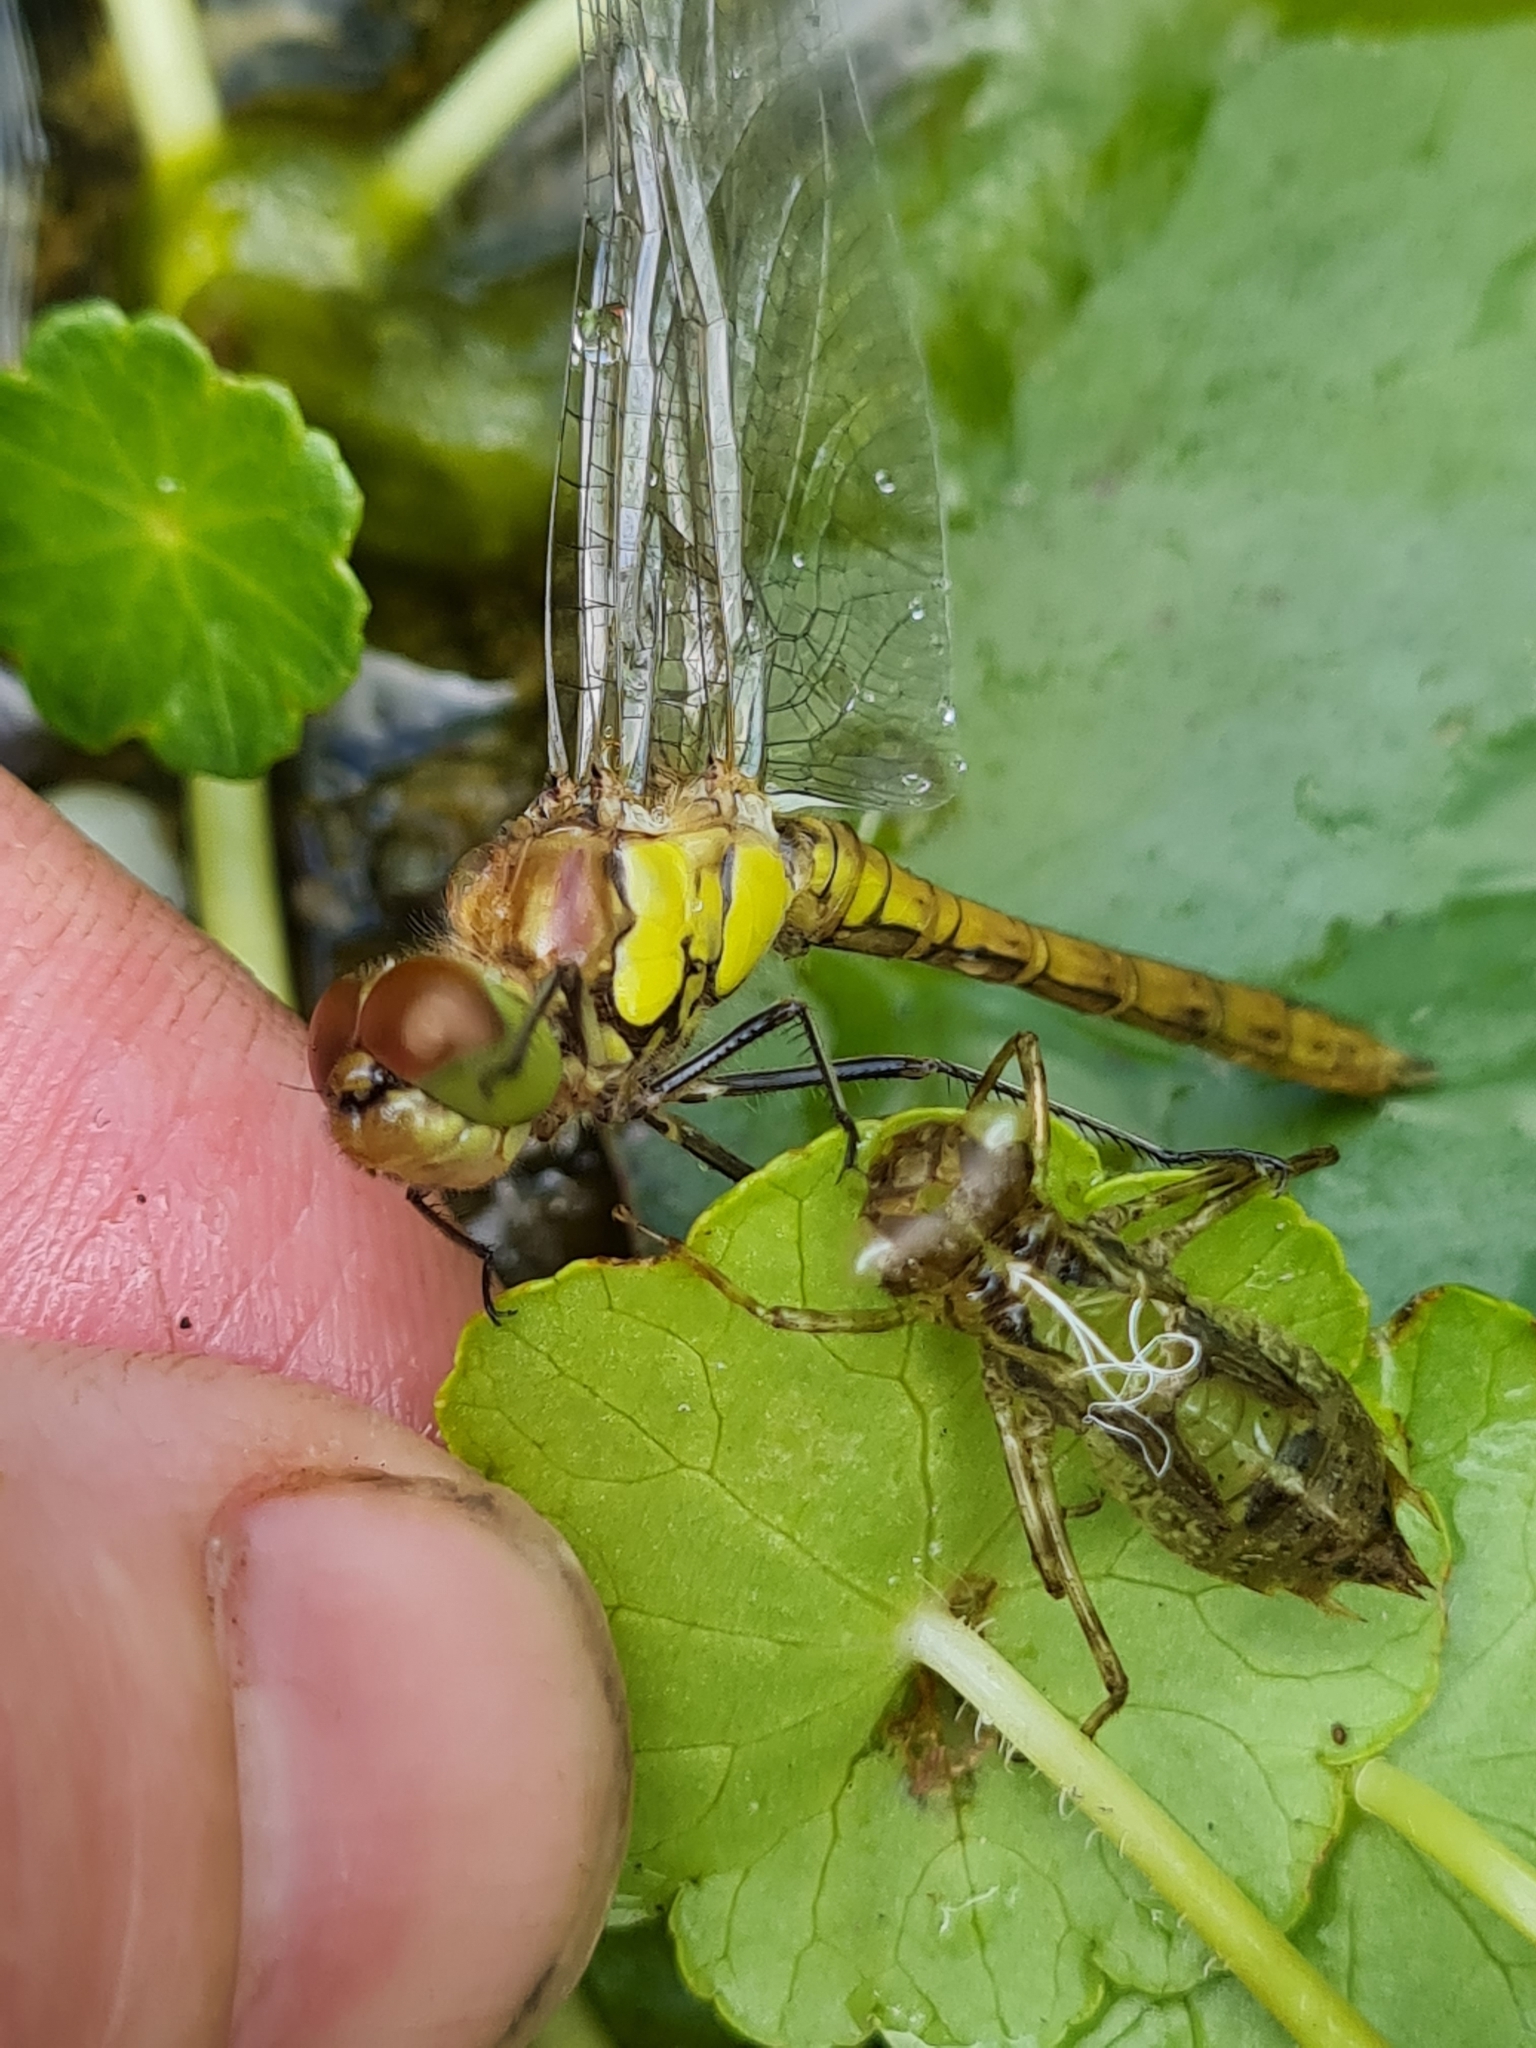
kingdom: Animalia
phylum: Arthropoda
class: Insecta
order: Odonata
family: Libellulidae
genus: Sympetrum
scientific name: Sympetrum striolatum
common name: Common darter
